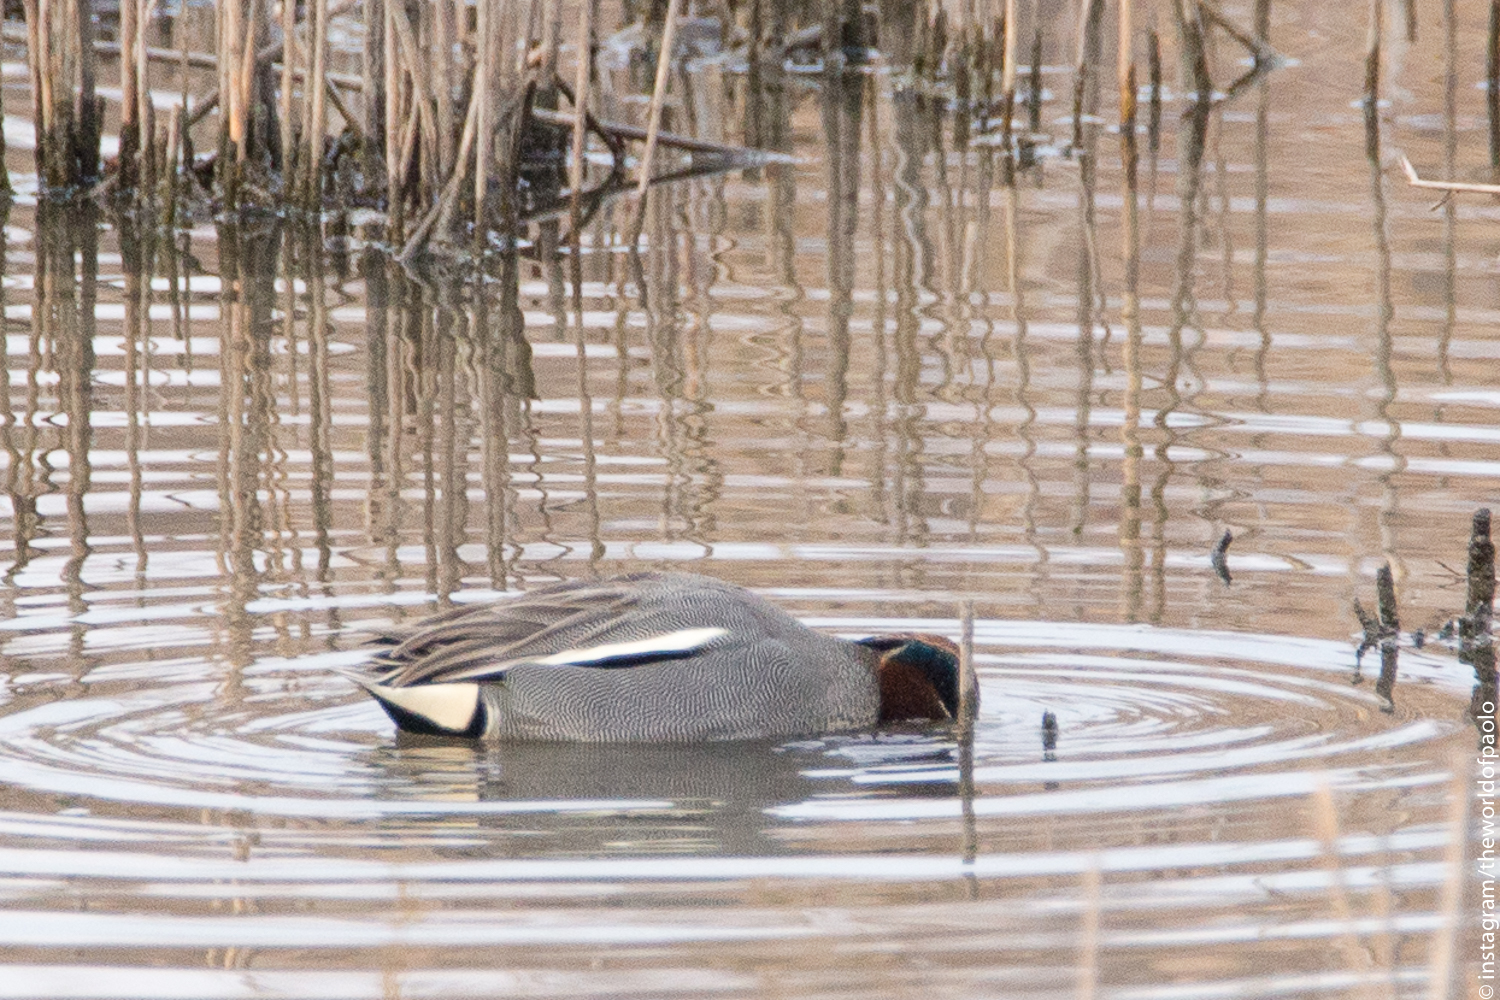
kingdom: Animalia
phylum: Chordata
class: Aves
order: Anseriformes
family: Anatidae
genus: Anas
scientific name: Anas crecca
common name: Eurasian teal
